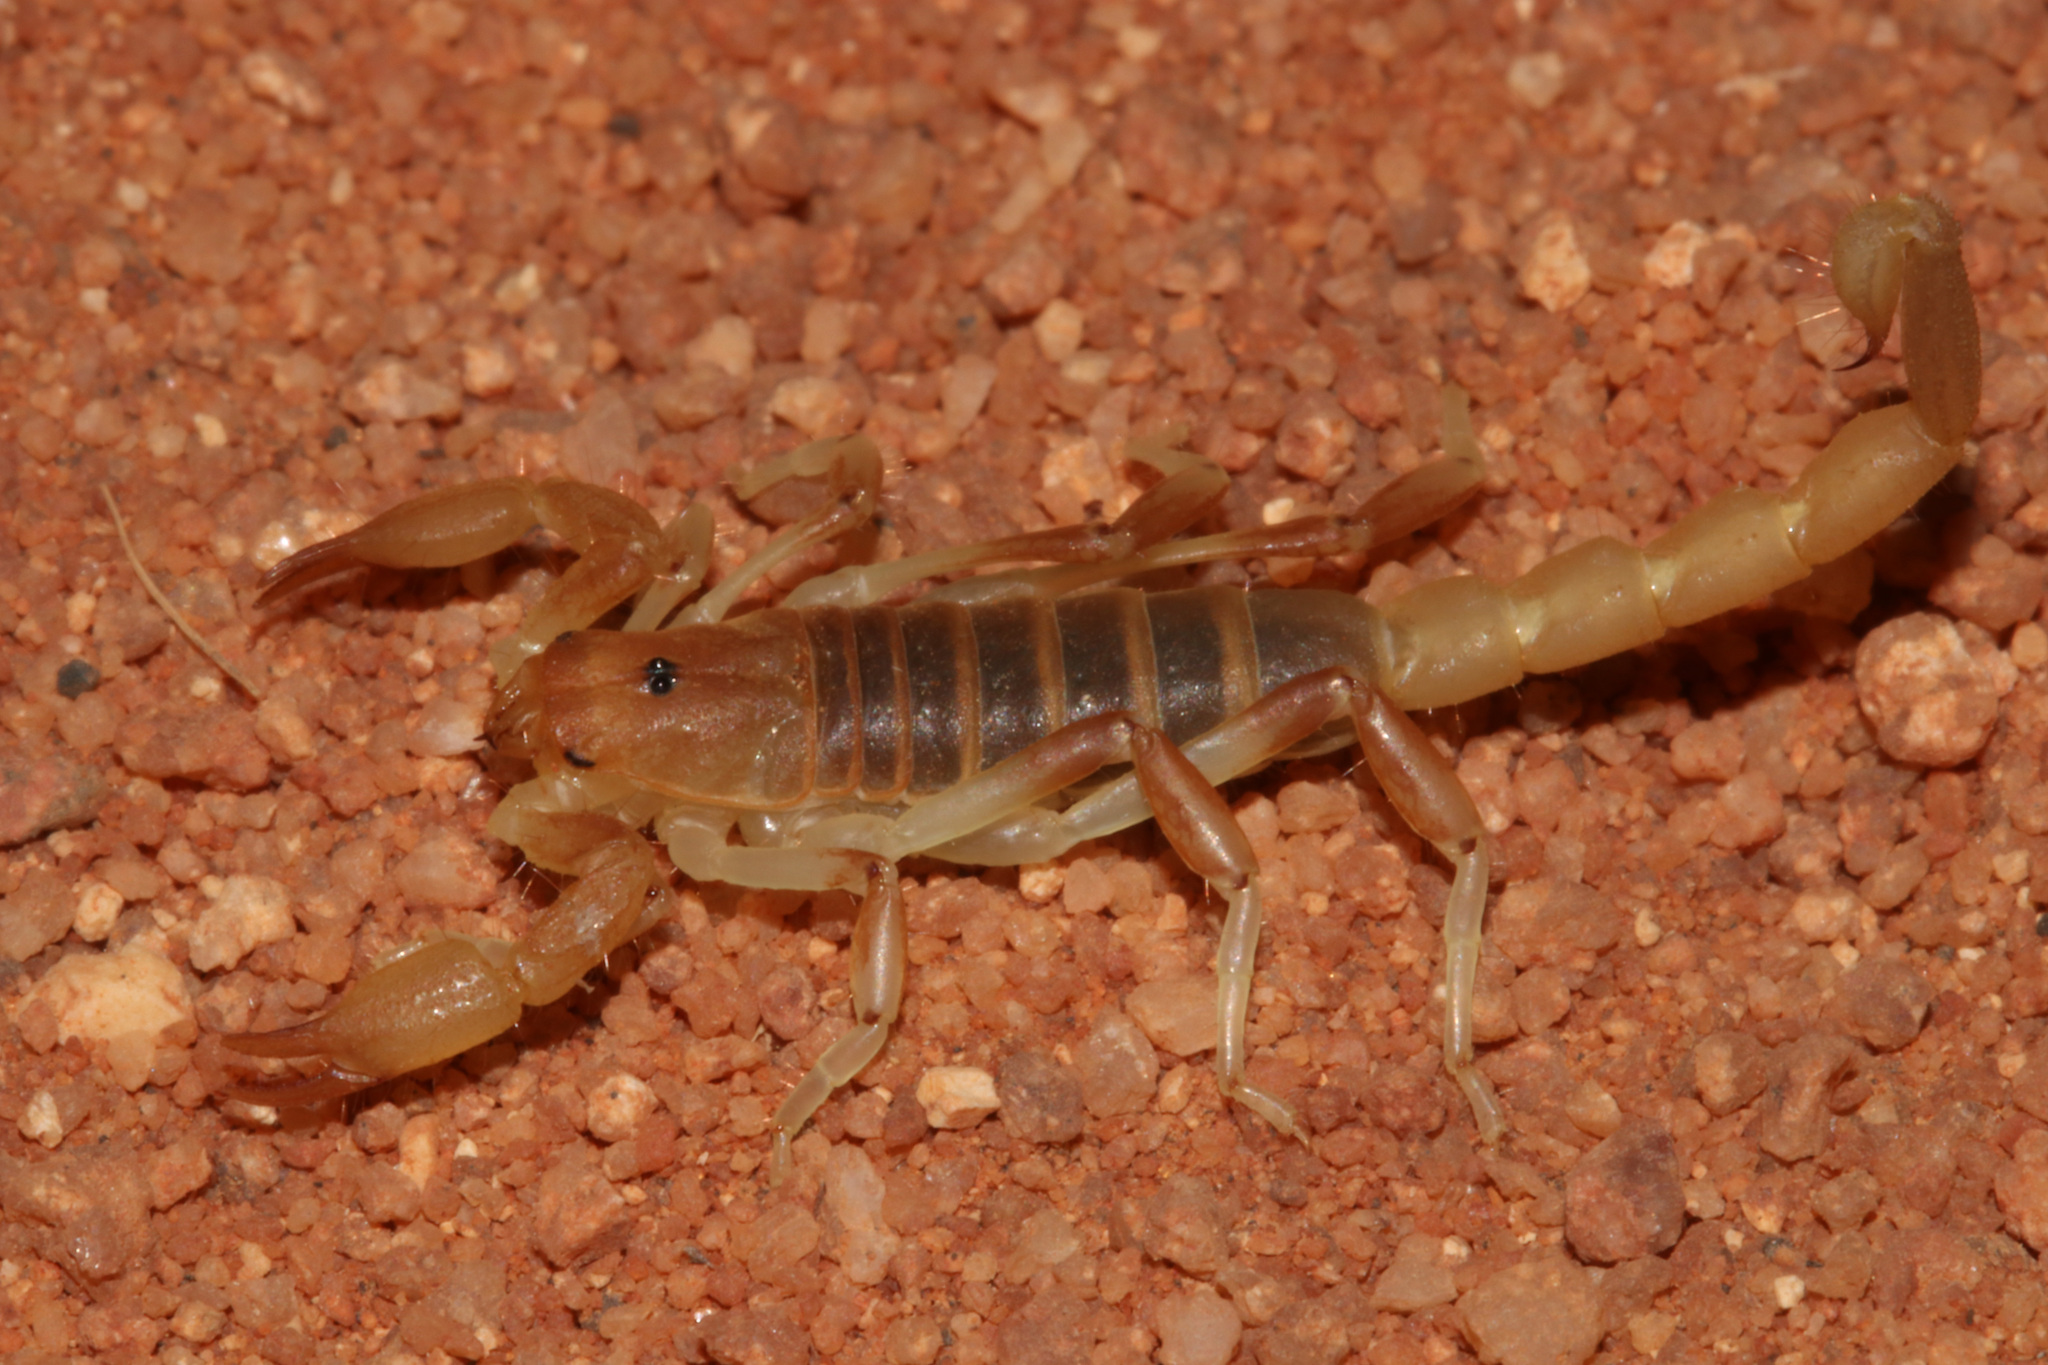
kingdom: Animalia
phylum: Arthropoda
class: Arachnida
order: Scorpiones
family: Scorpionidae
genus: Opistophthalmus
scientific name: Opistophthalmus lornae
